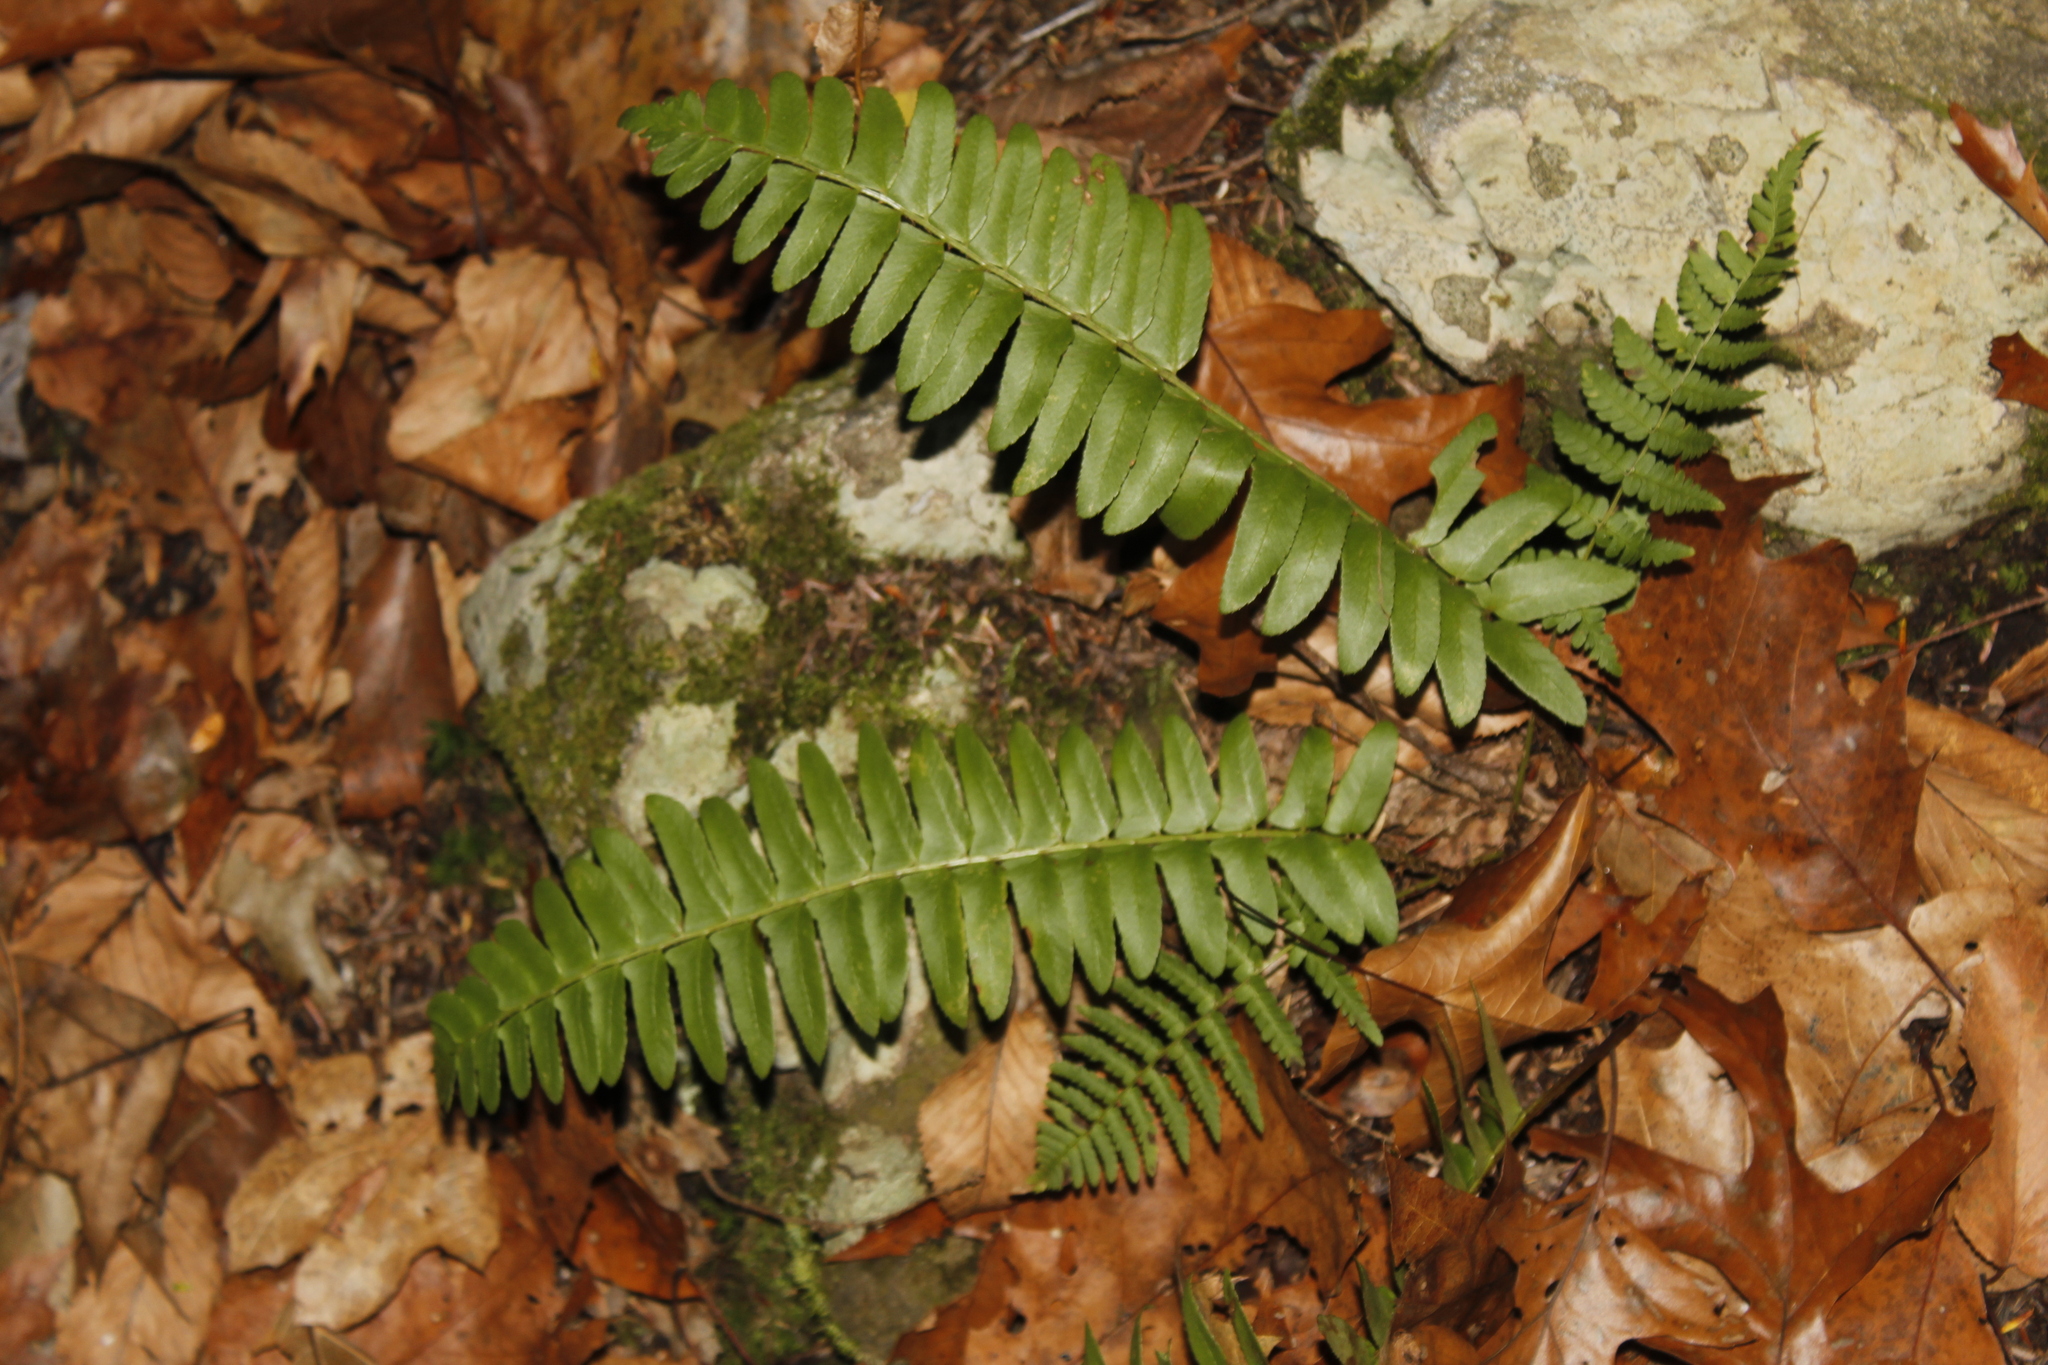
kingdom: Plantae
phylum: Tracheophyta
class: Polypodiopsida
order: Polypodiales
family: Dryopteridaceae
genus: Polystichum
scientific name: Polystichum acrostichoides
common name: Christmas fern
